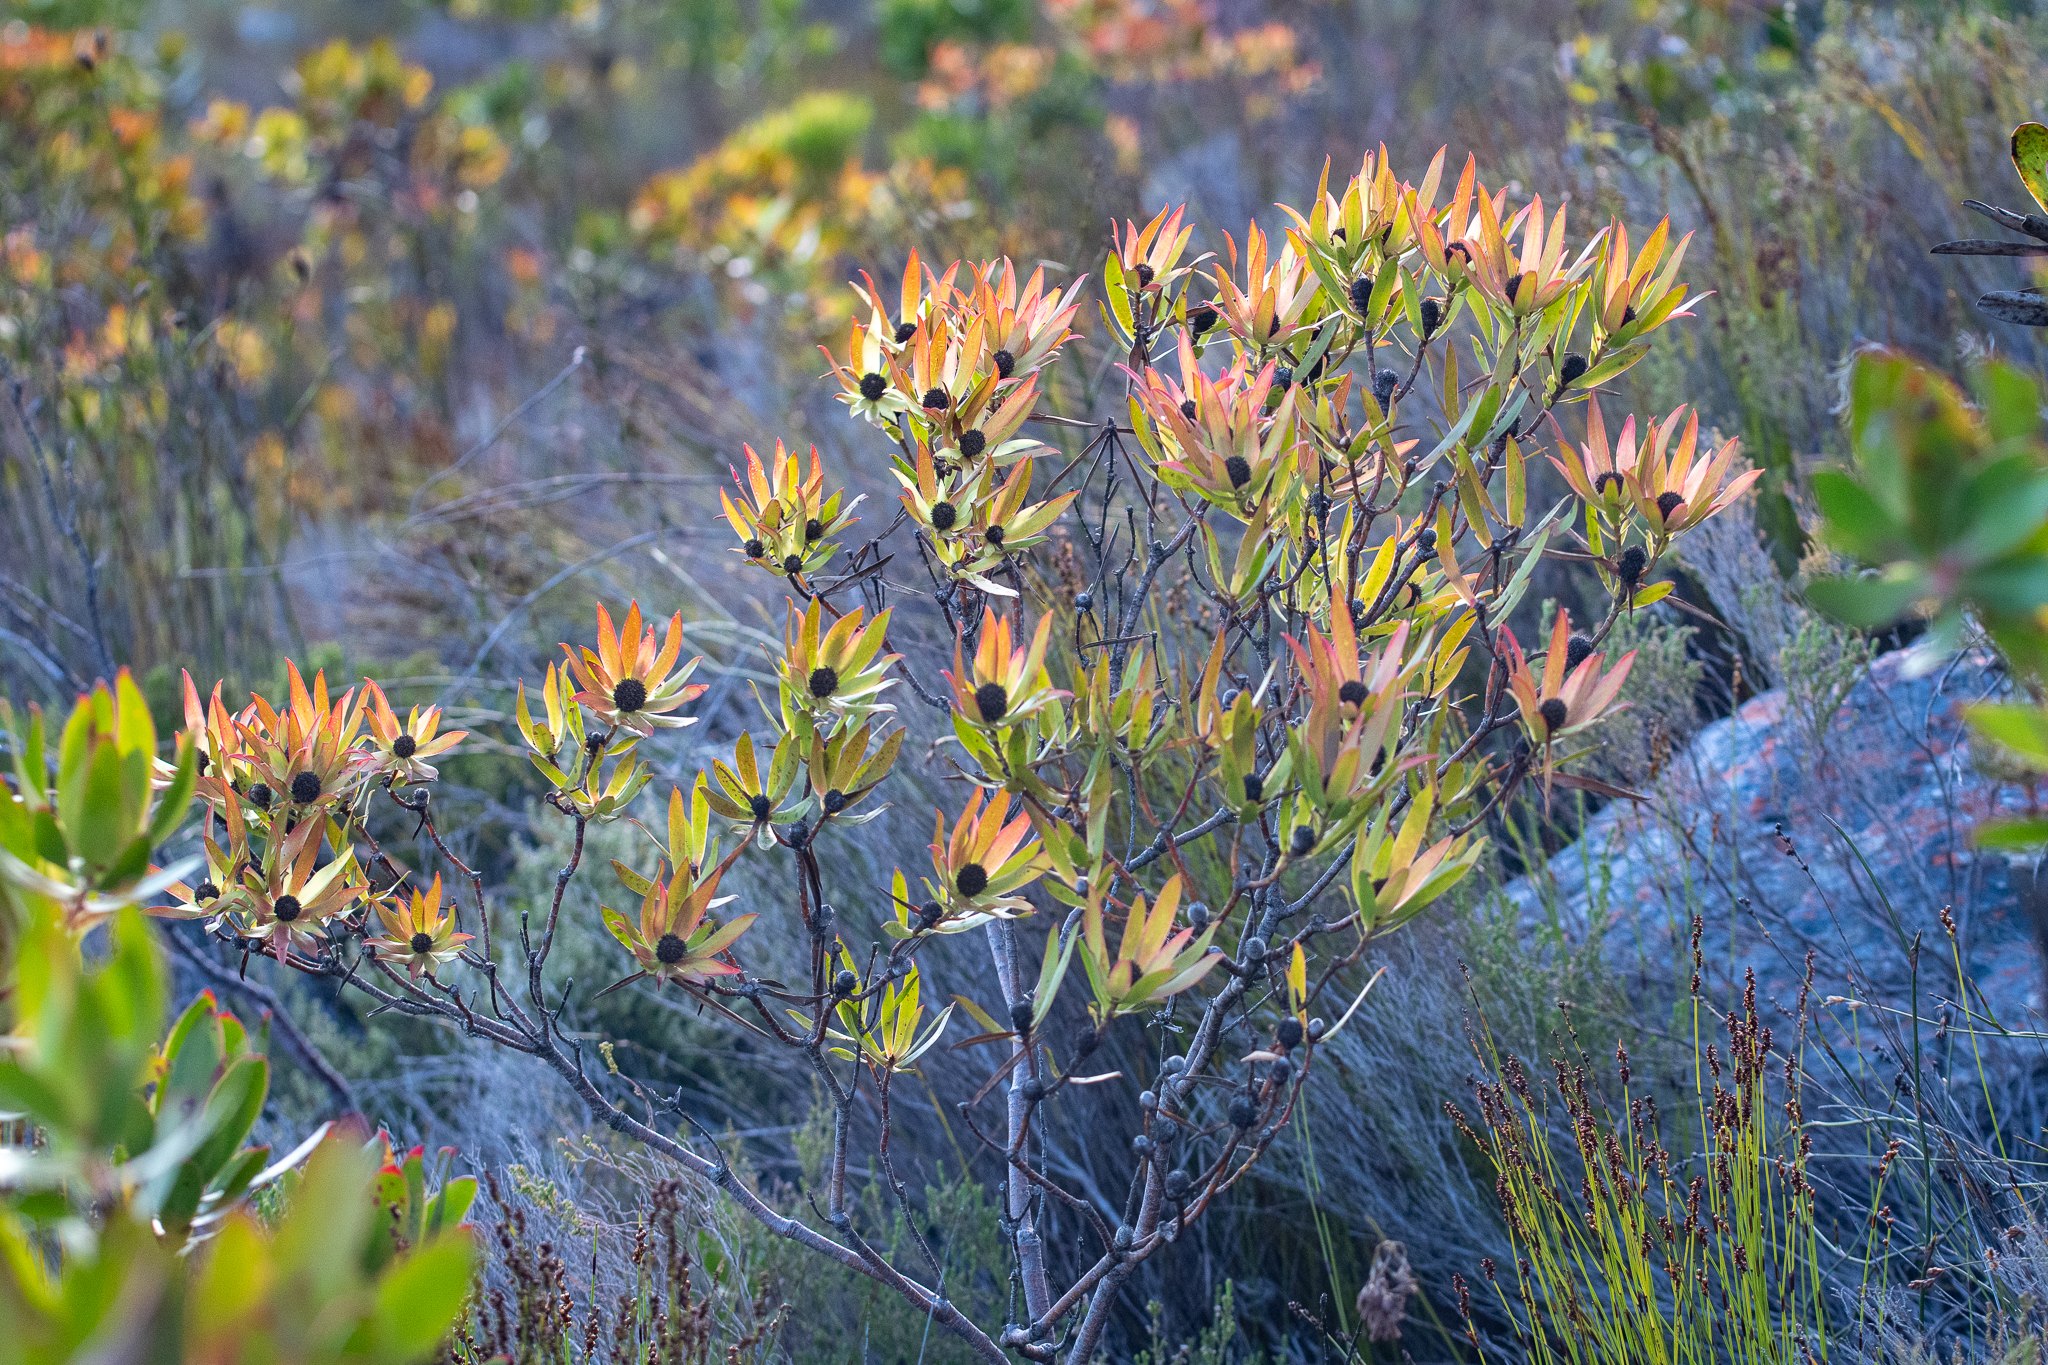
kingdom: Plantae
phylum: Tracheophyta
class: Magnoliopsida
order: Proteales
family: Proteaceae
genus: Leucadendron
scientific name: Leucadendron gandogeri
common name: Broad-leaf conebush
